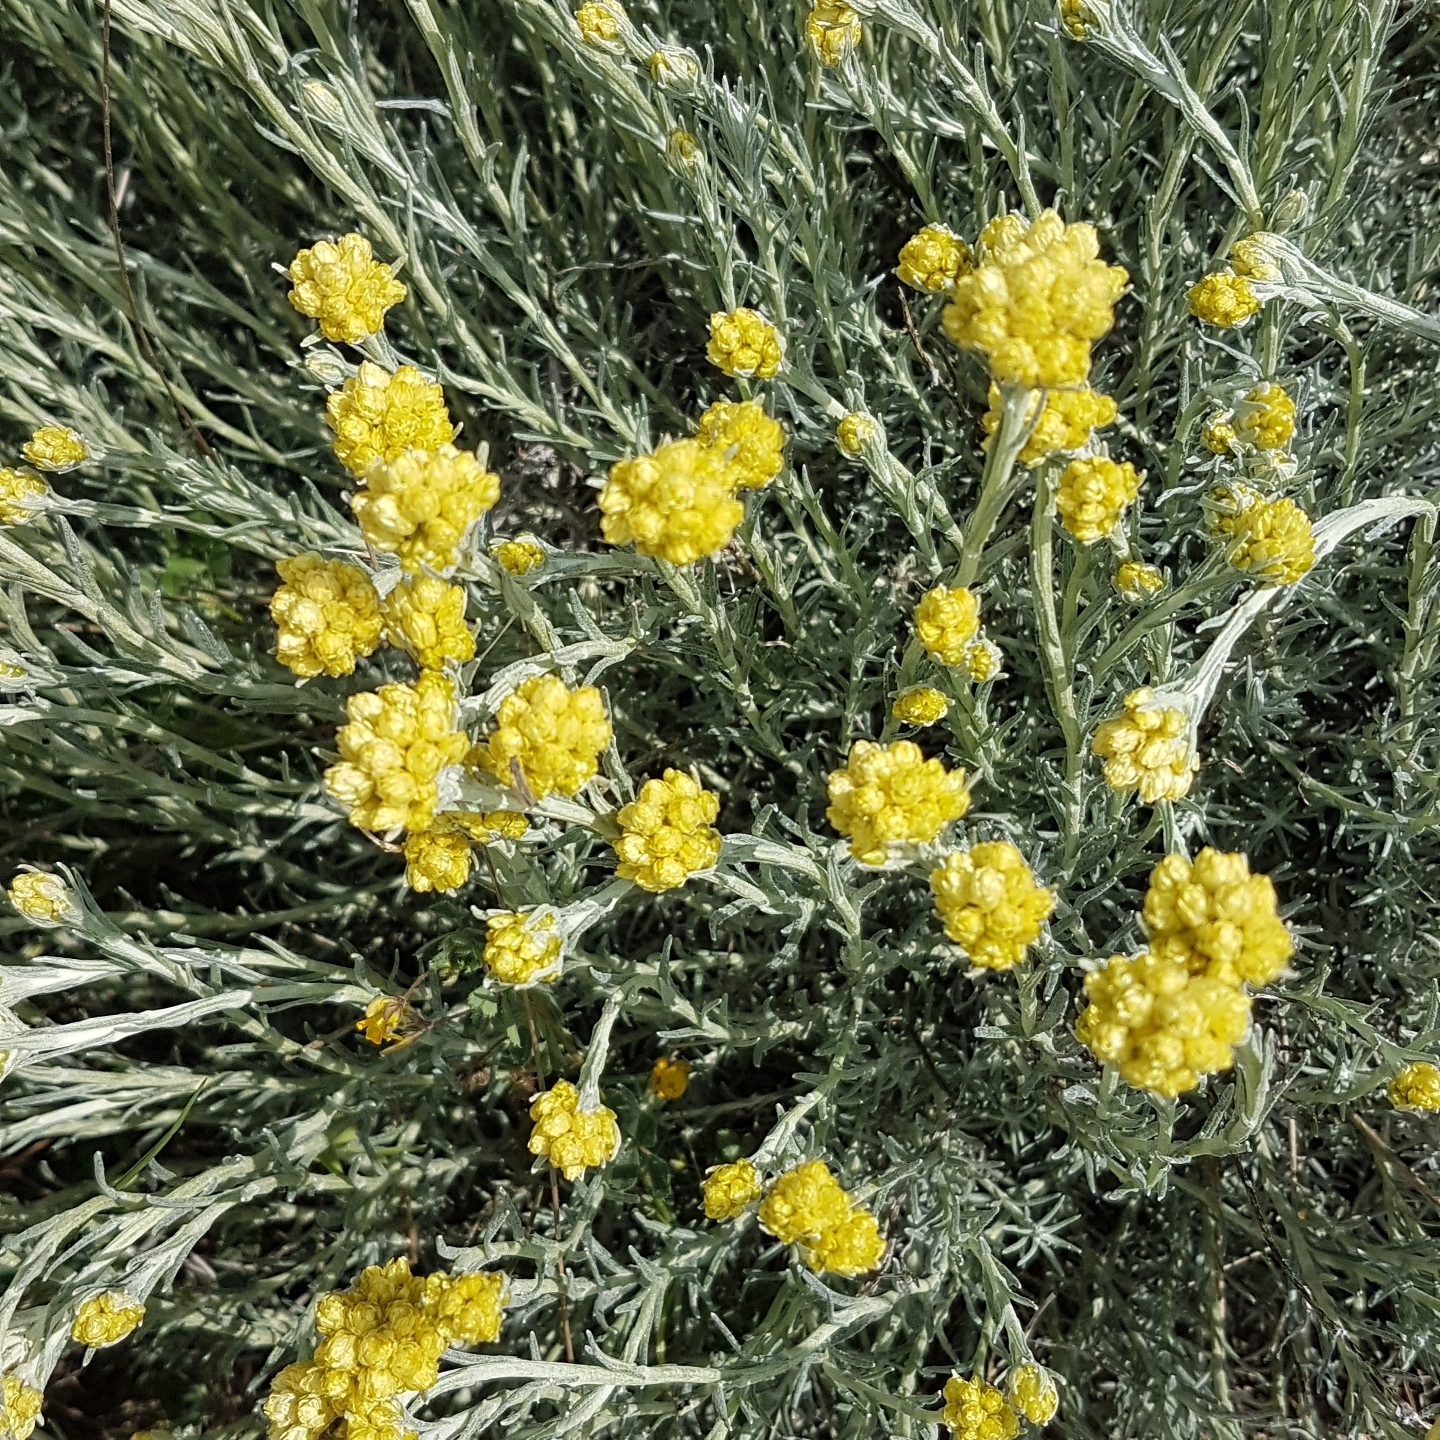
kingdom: Plantae
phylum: Tracheophyta
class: Magnoliopsida
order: Asterales
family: Asteraceae
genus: Helichrysum
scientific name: Helichrysum stoechas
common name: Goldilocks
